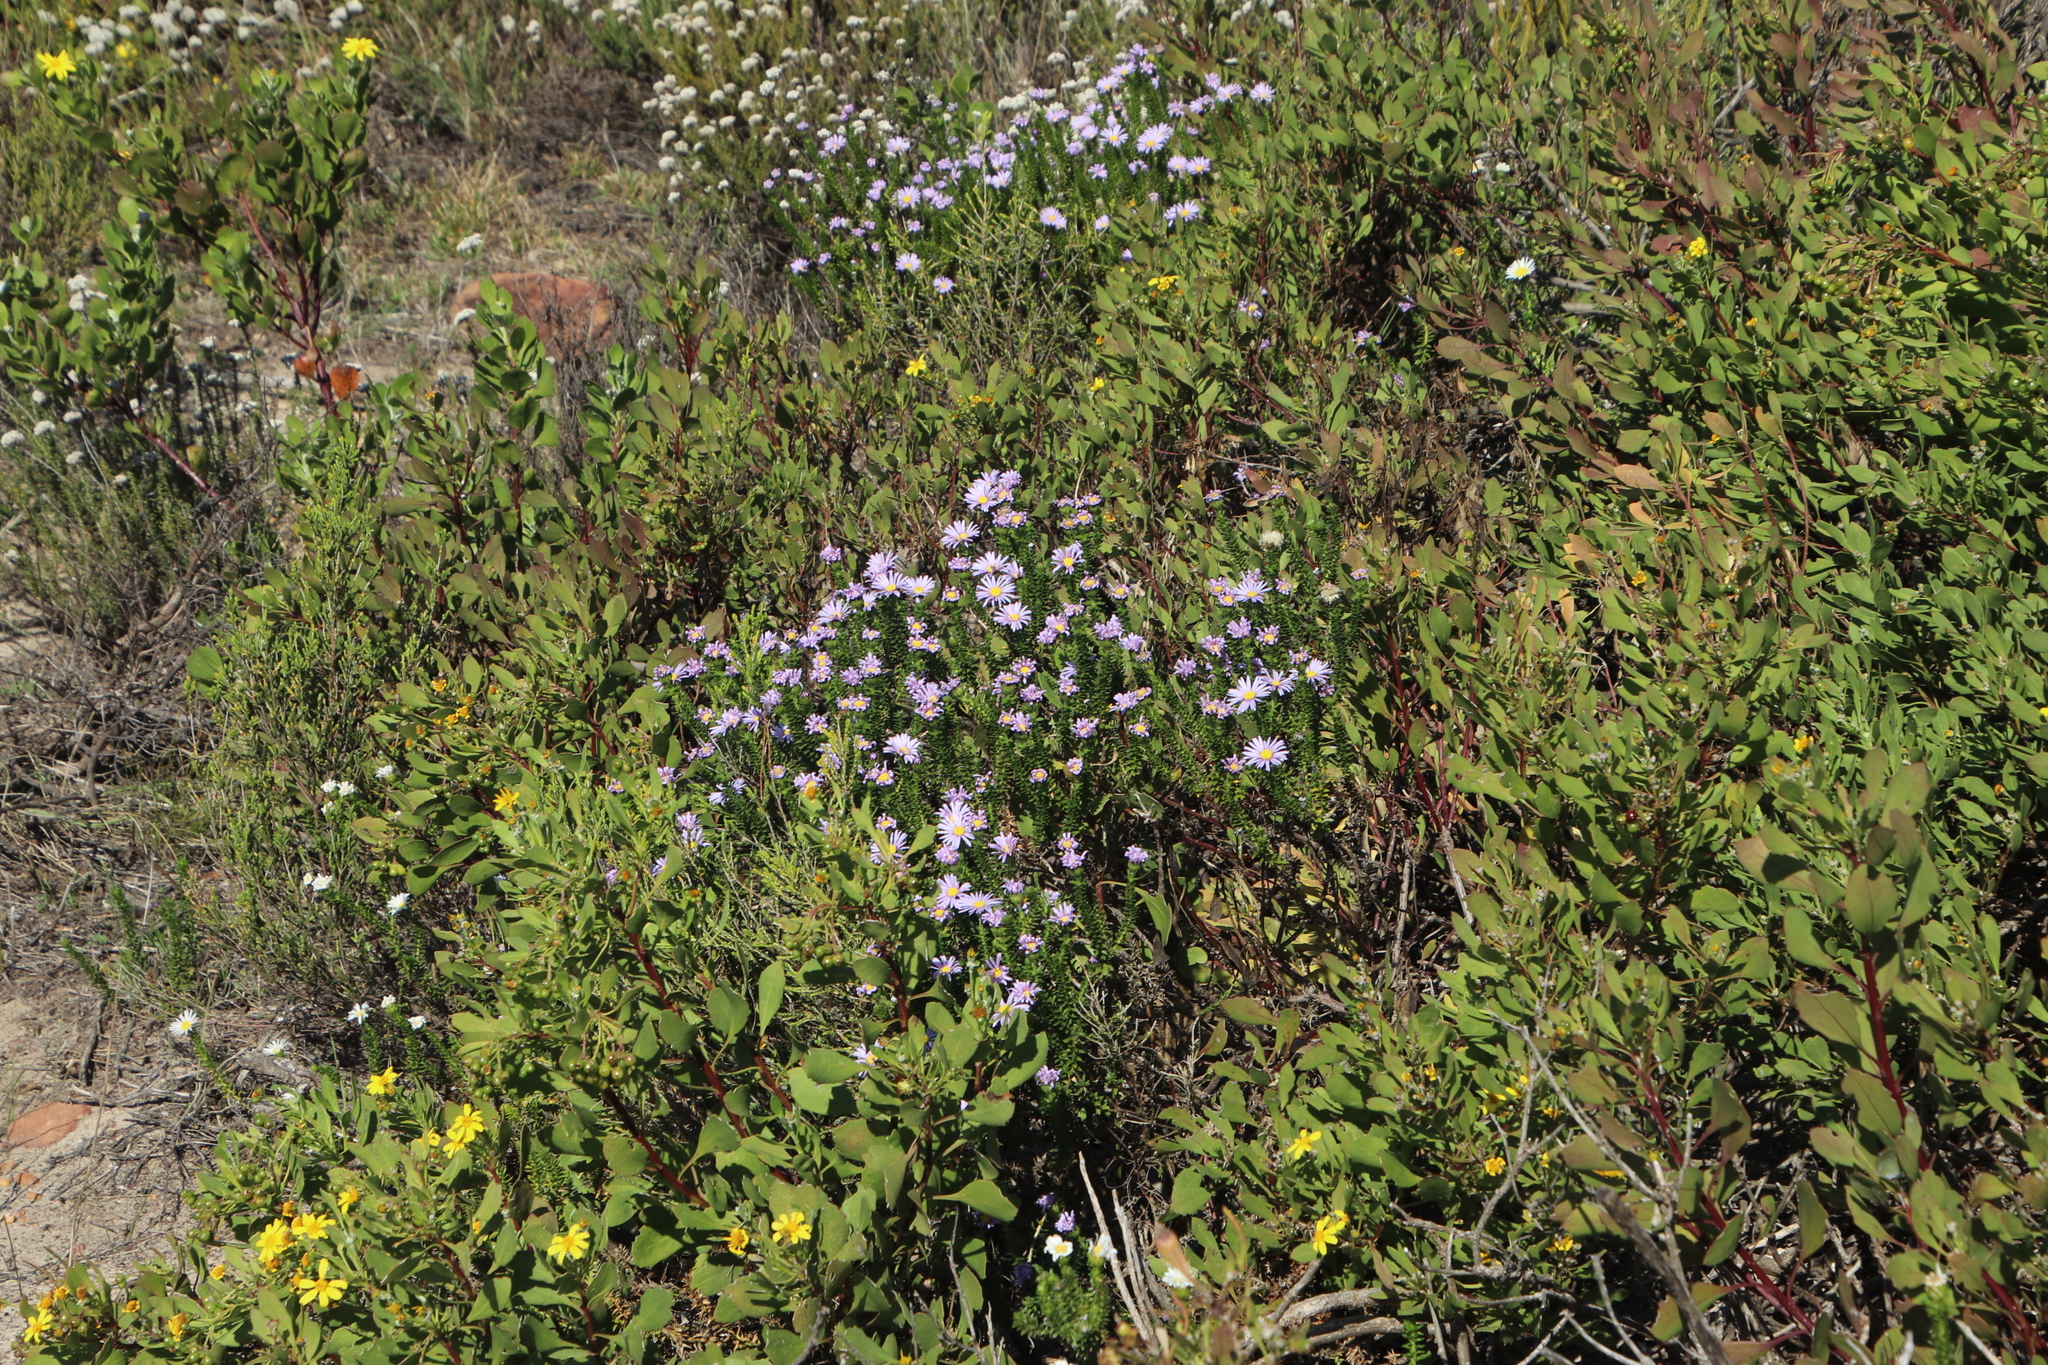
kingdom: Plantae
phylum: Tracheophyta
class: Magnoliopsida
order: Asterales
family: Asteraceae
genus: Felicia
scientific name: Felicia echinata
